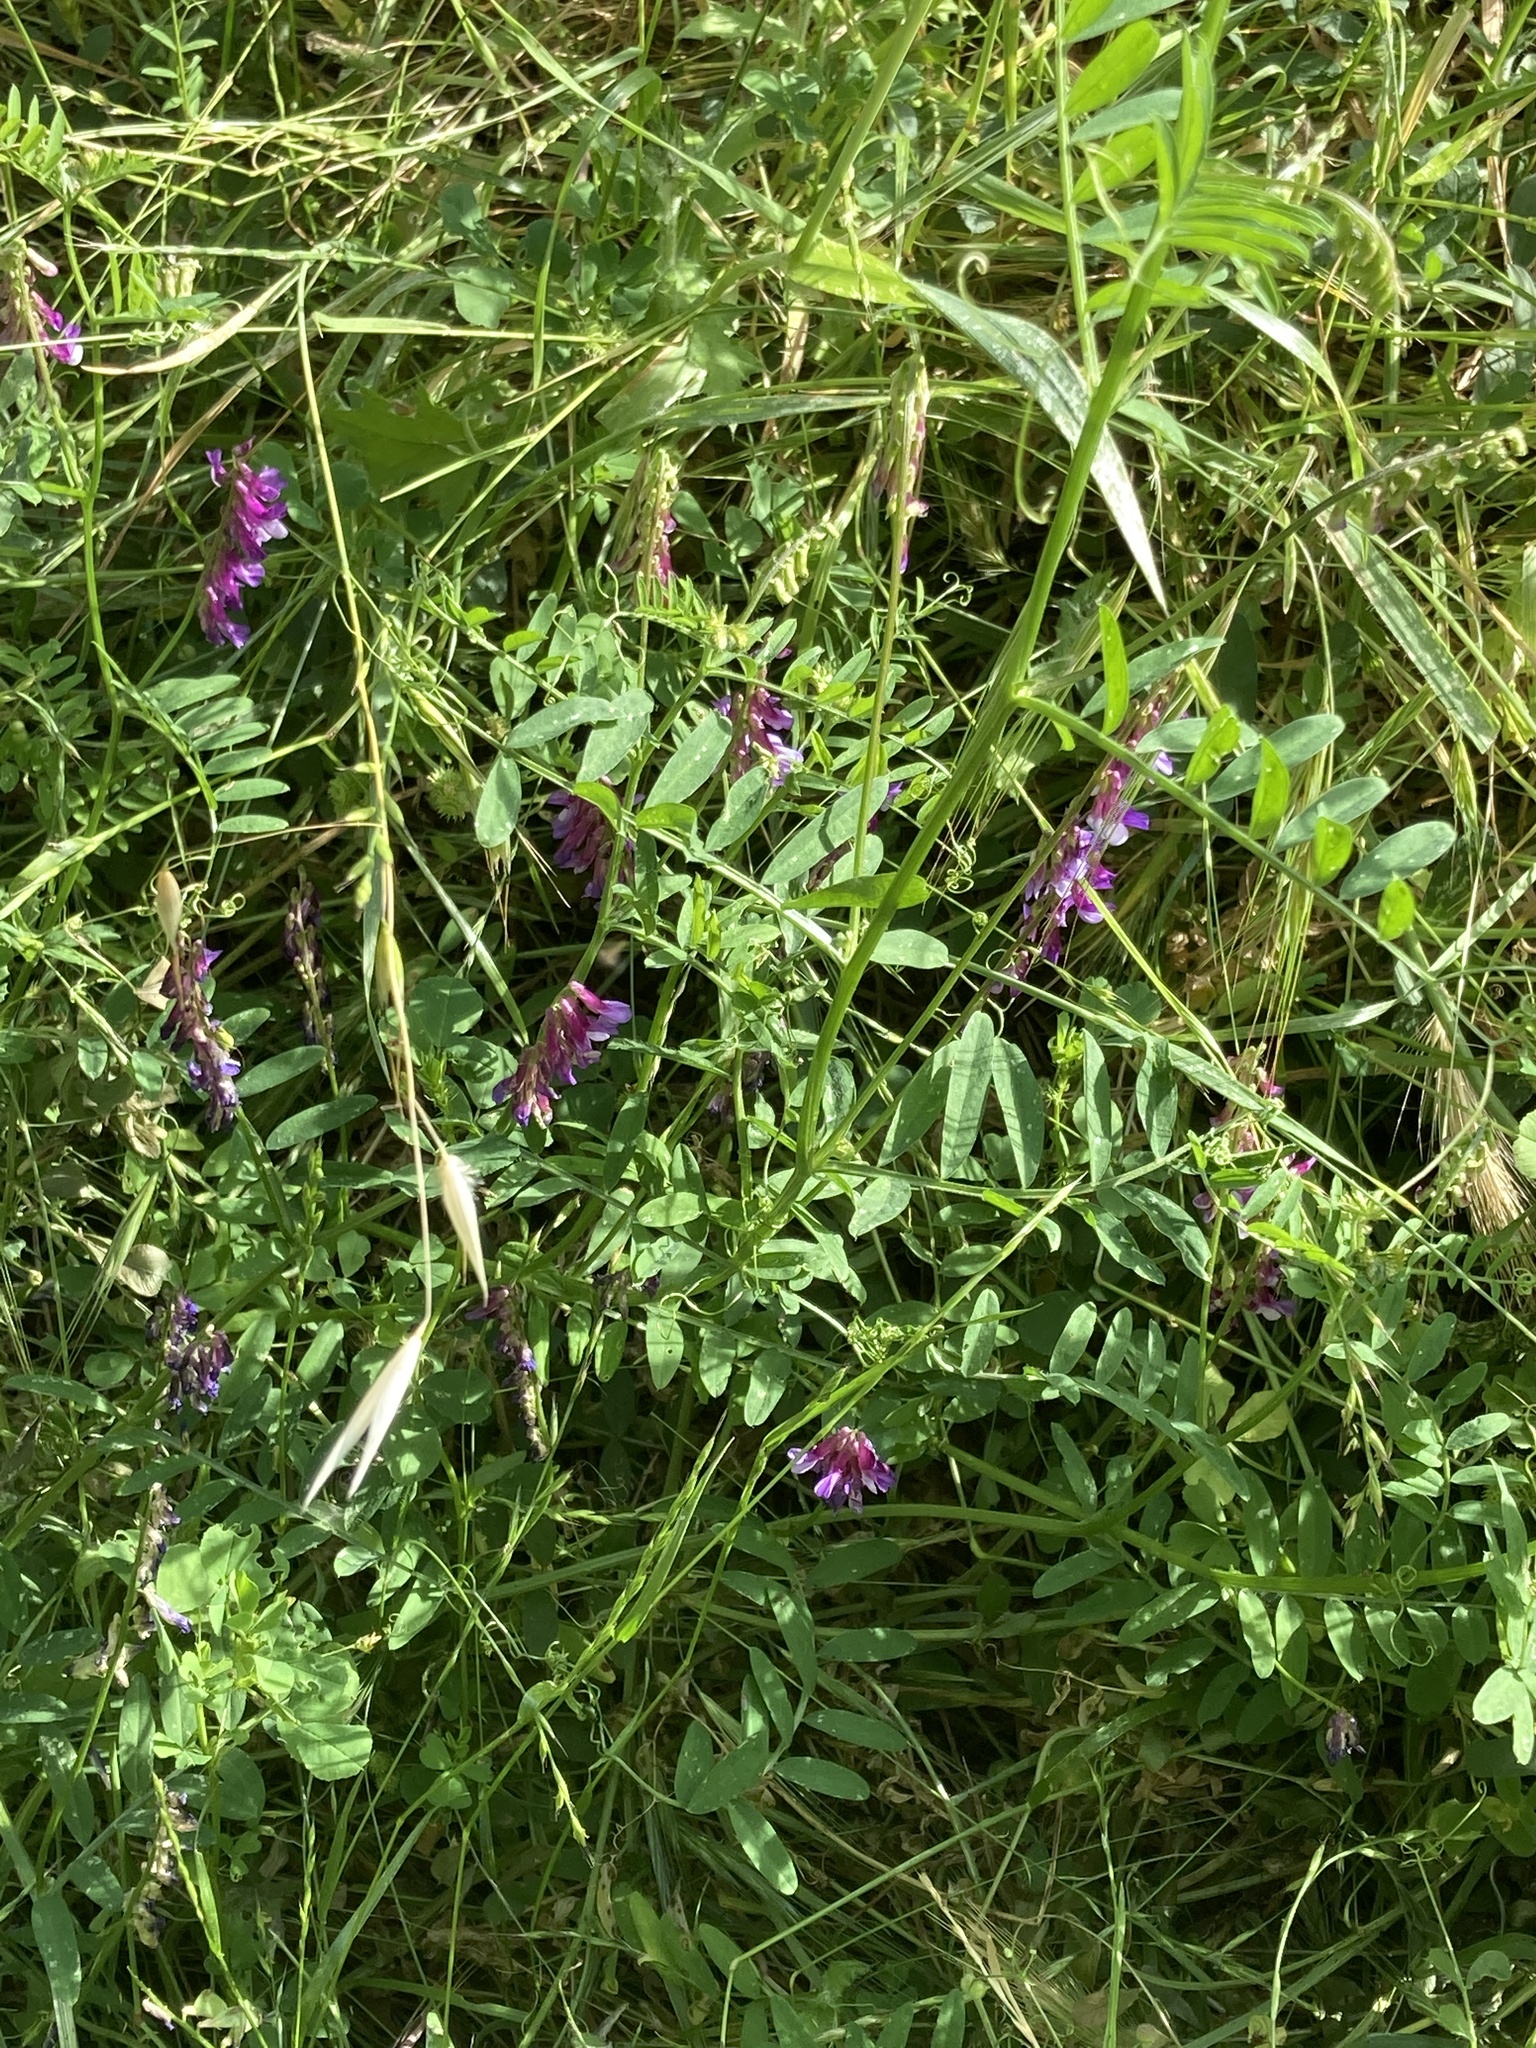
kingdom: Plantae
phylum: Tracheophyta
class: Magnoliopsida
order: Fabales
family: Fabaceae
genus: Vicia
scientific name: Vicia villosa
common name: Fodder vetch
